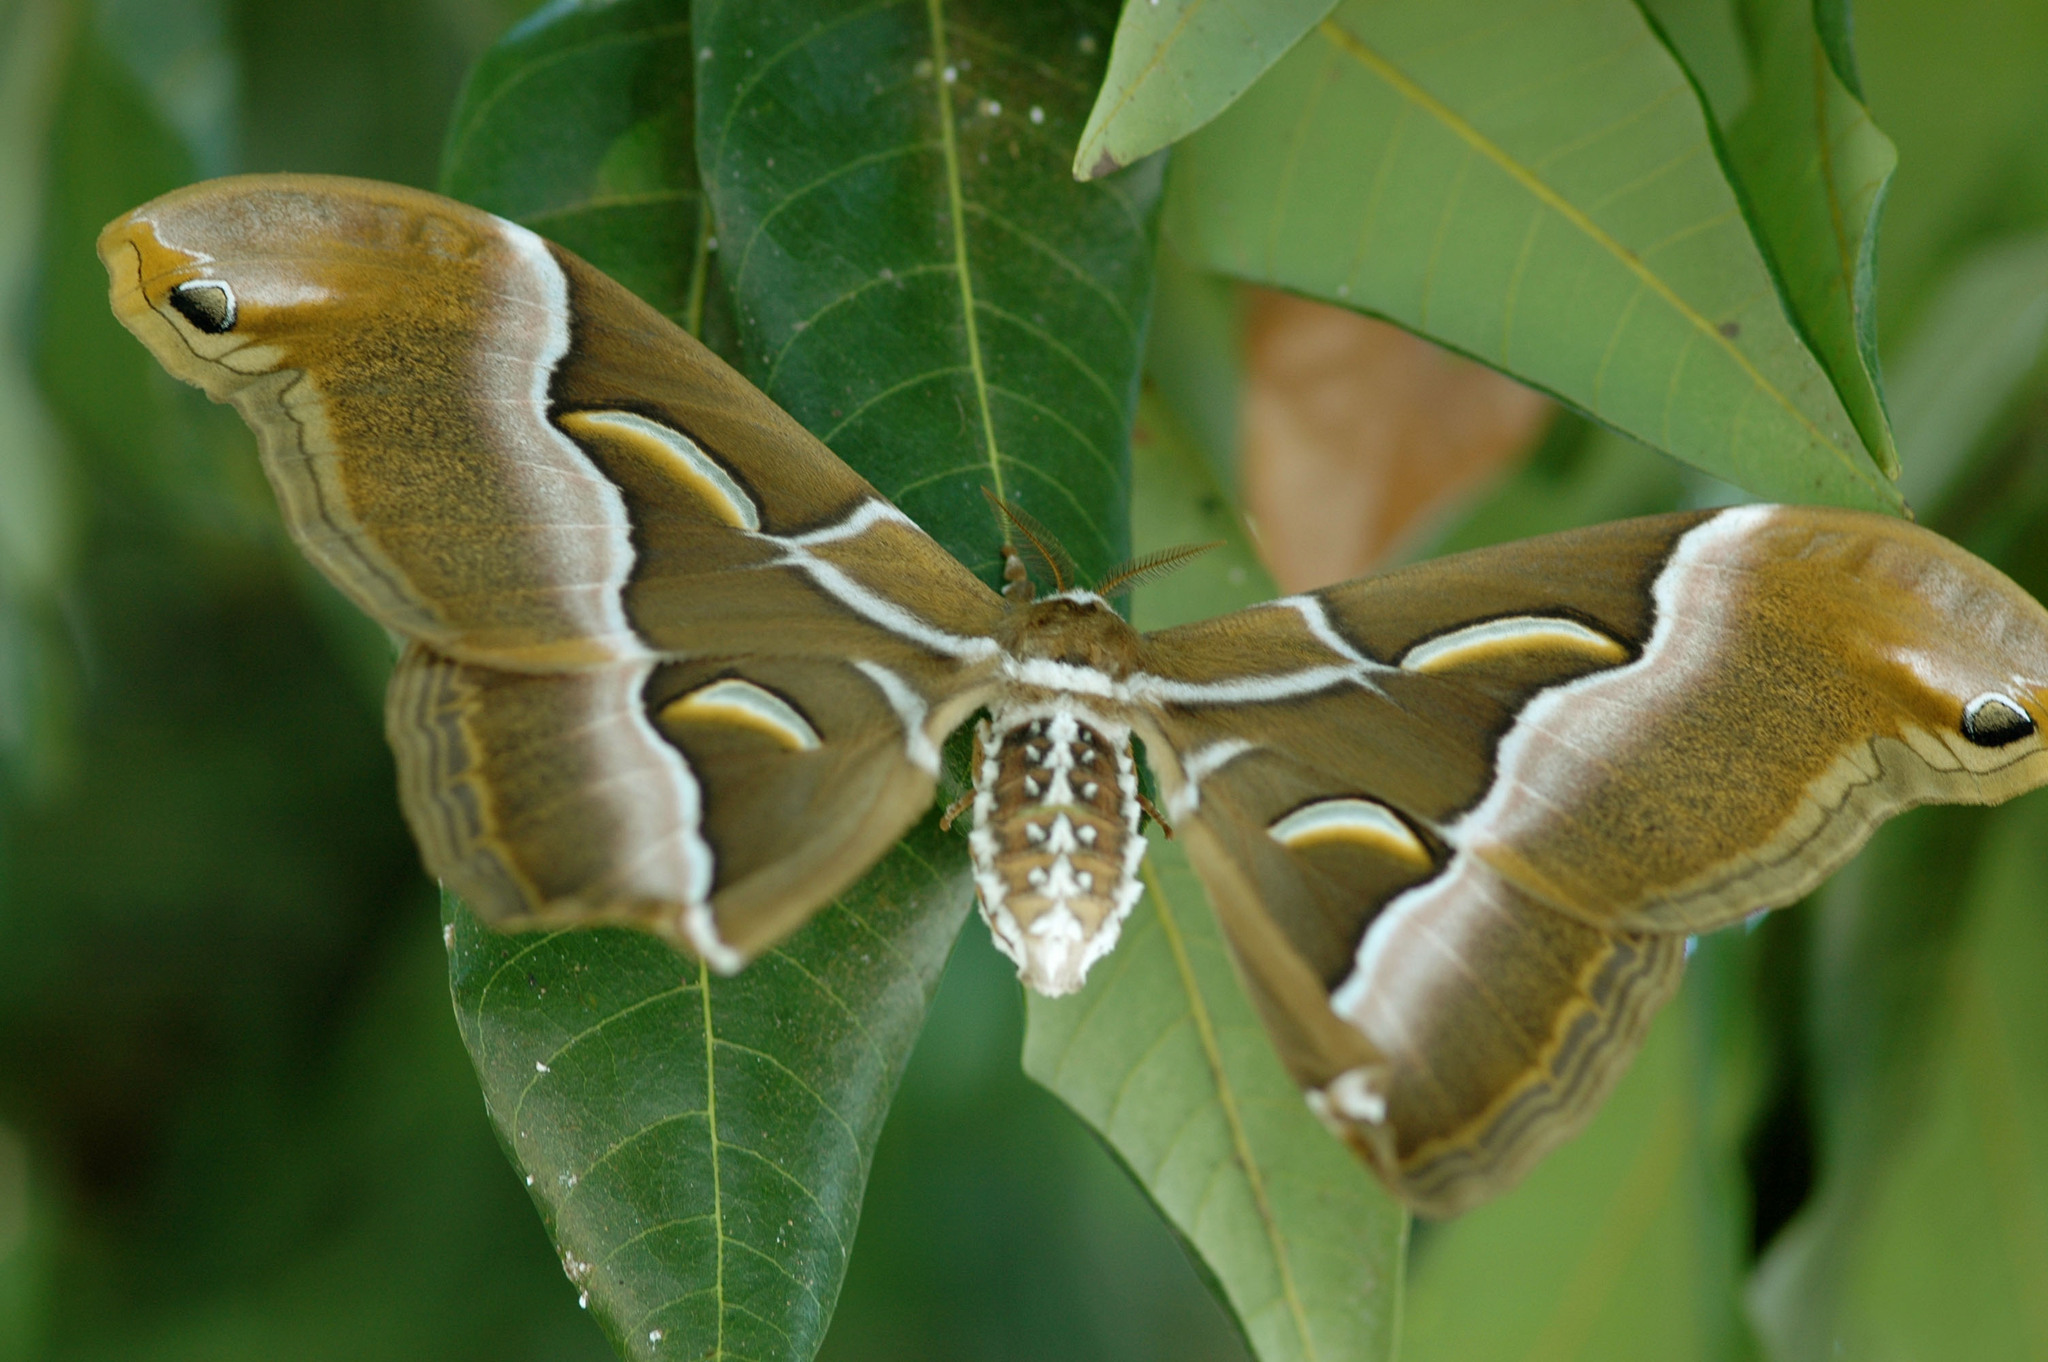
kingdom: Animalia
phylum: Arthropoda
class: Insecta
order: Lepidoptera
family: Saturniidae
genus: Samia
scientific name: Samia wangi
